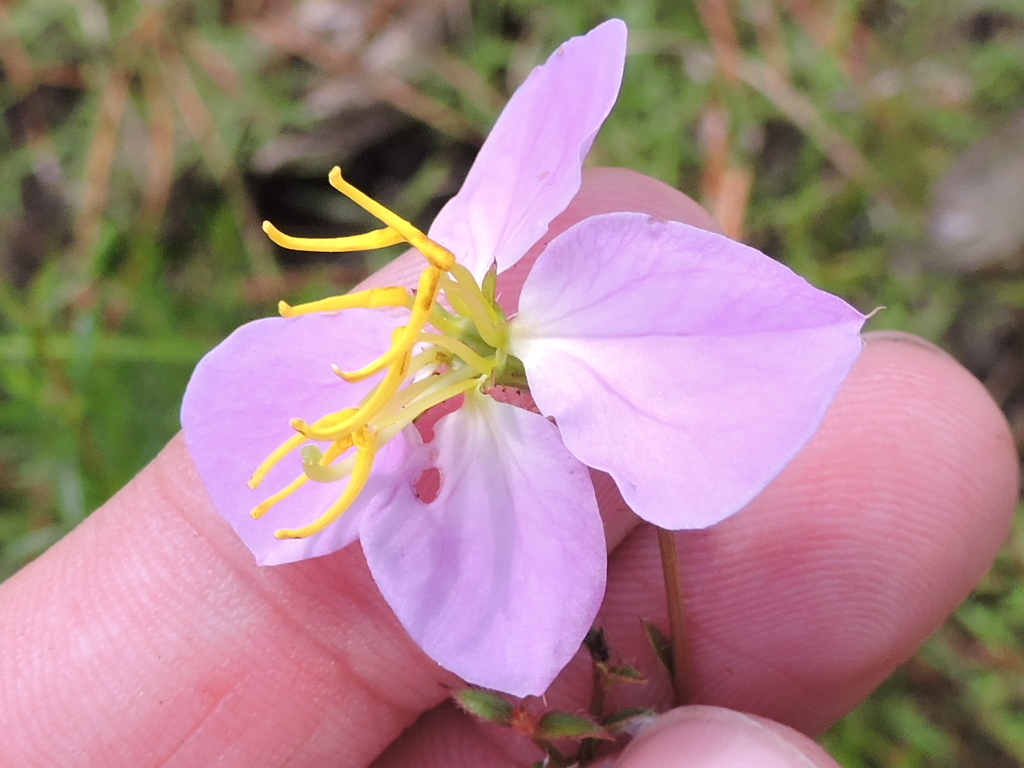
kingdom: Plantae
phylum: Tracheophyta
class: Magnoliopsida
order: Myrtales
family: Melastomataceae
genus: Rhexia
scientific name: Rhexia mariana
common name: Dull meadow-pitcher
